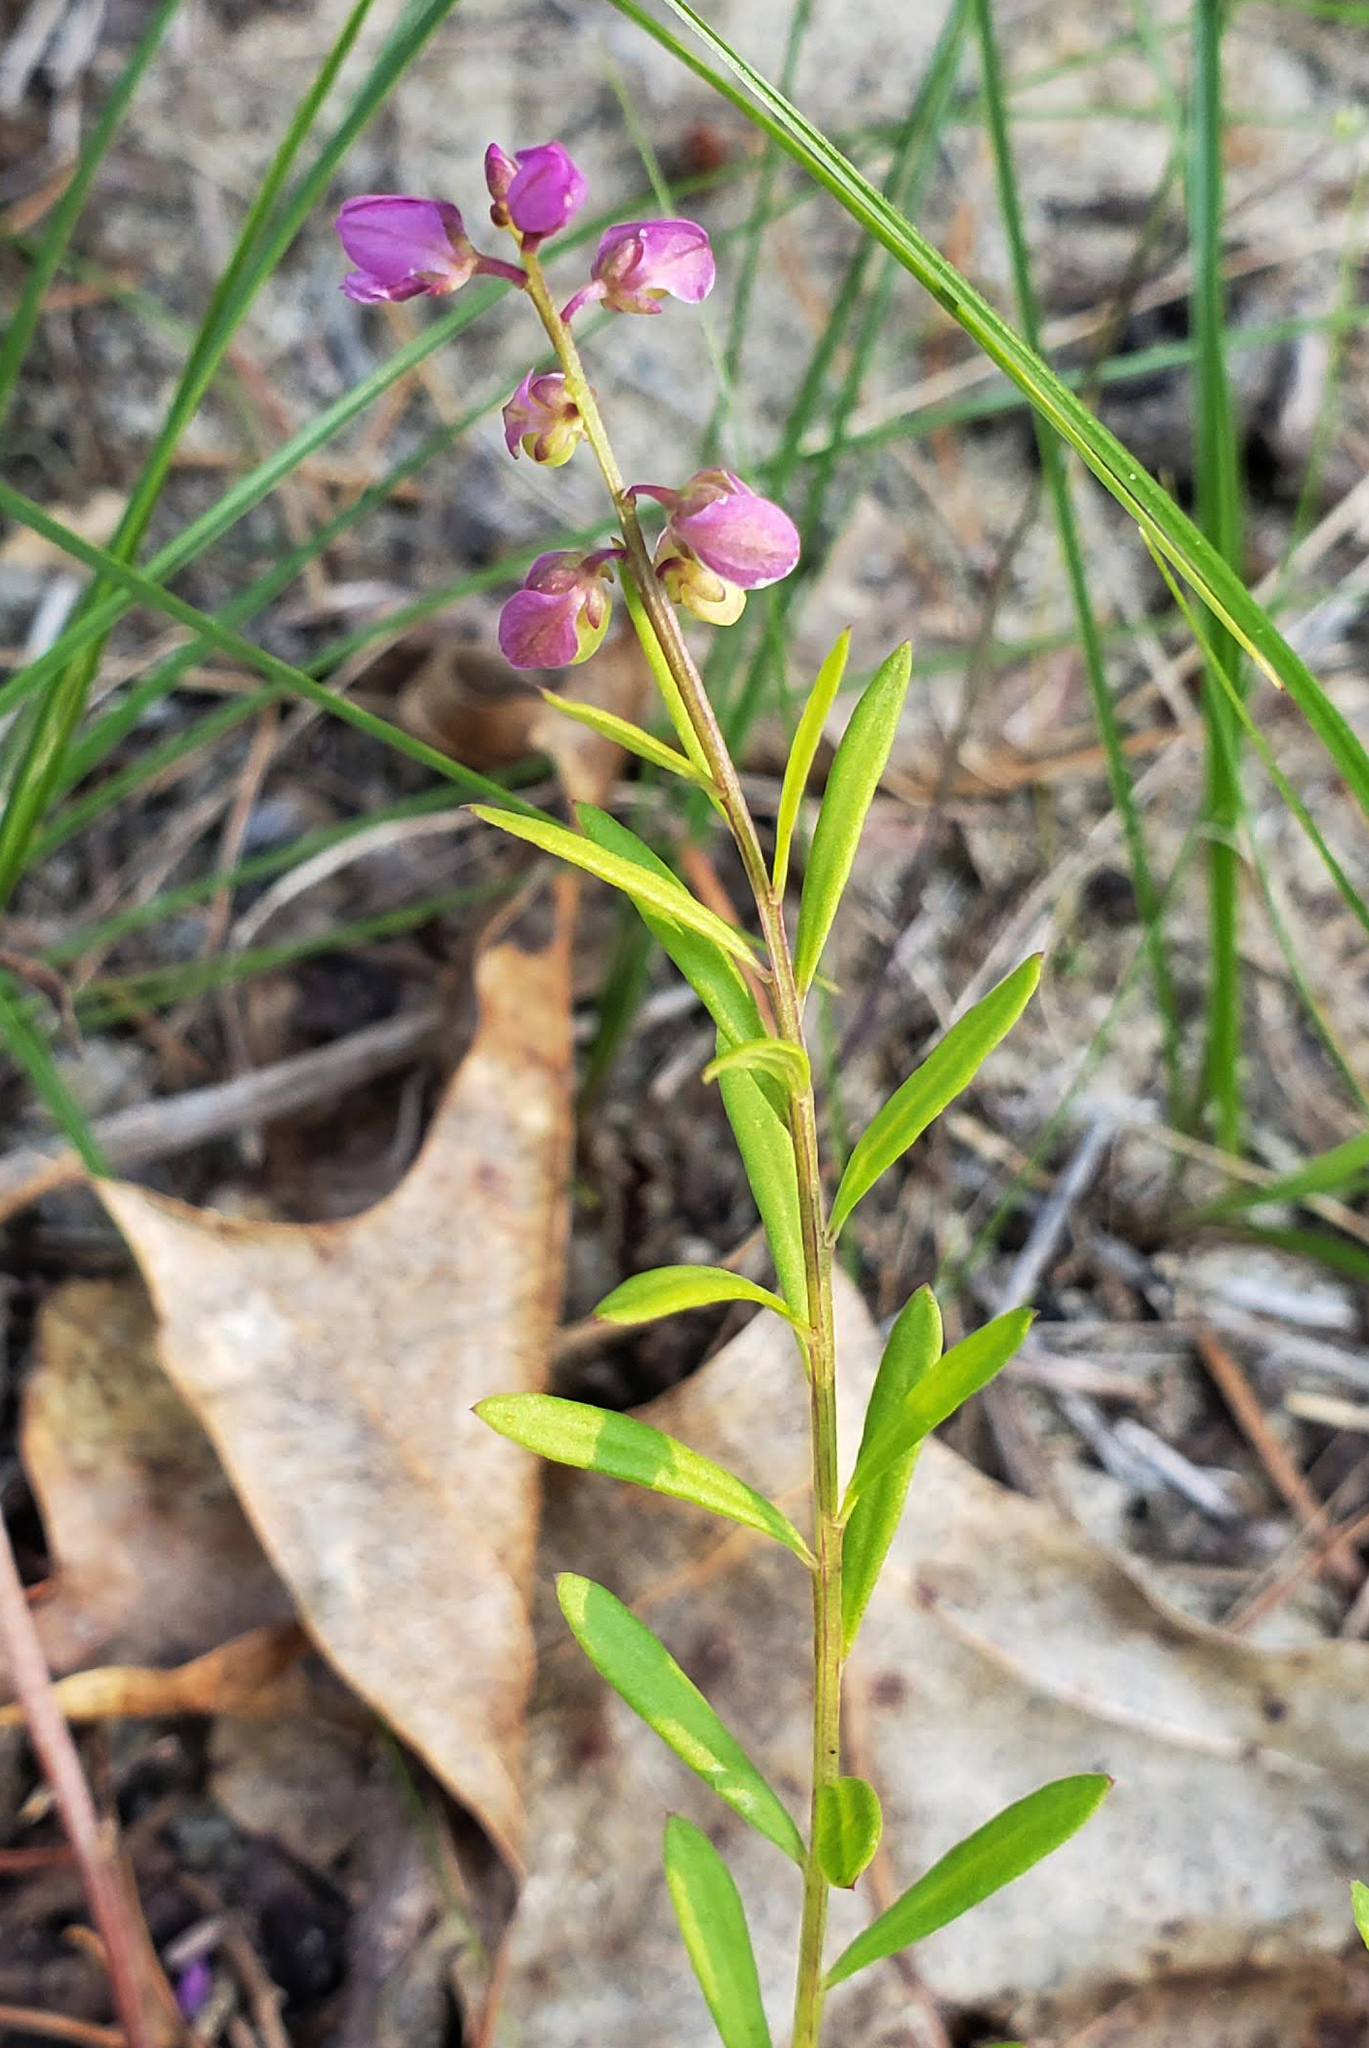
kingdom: Plantae
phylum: Tracheophyta
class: Magnoliopsida
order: Fabales
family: Polygalaceae
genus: Polygala
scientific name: Polygala polygama
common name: Bitter milkwort
